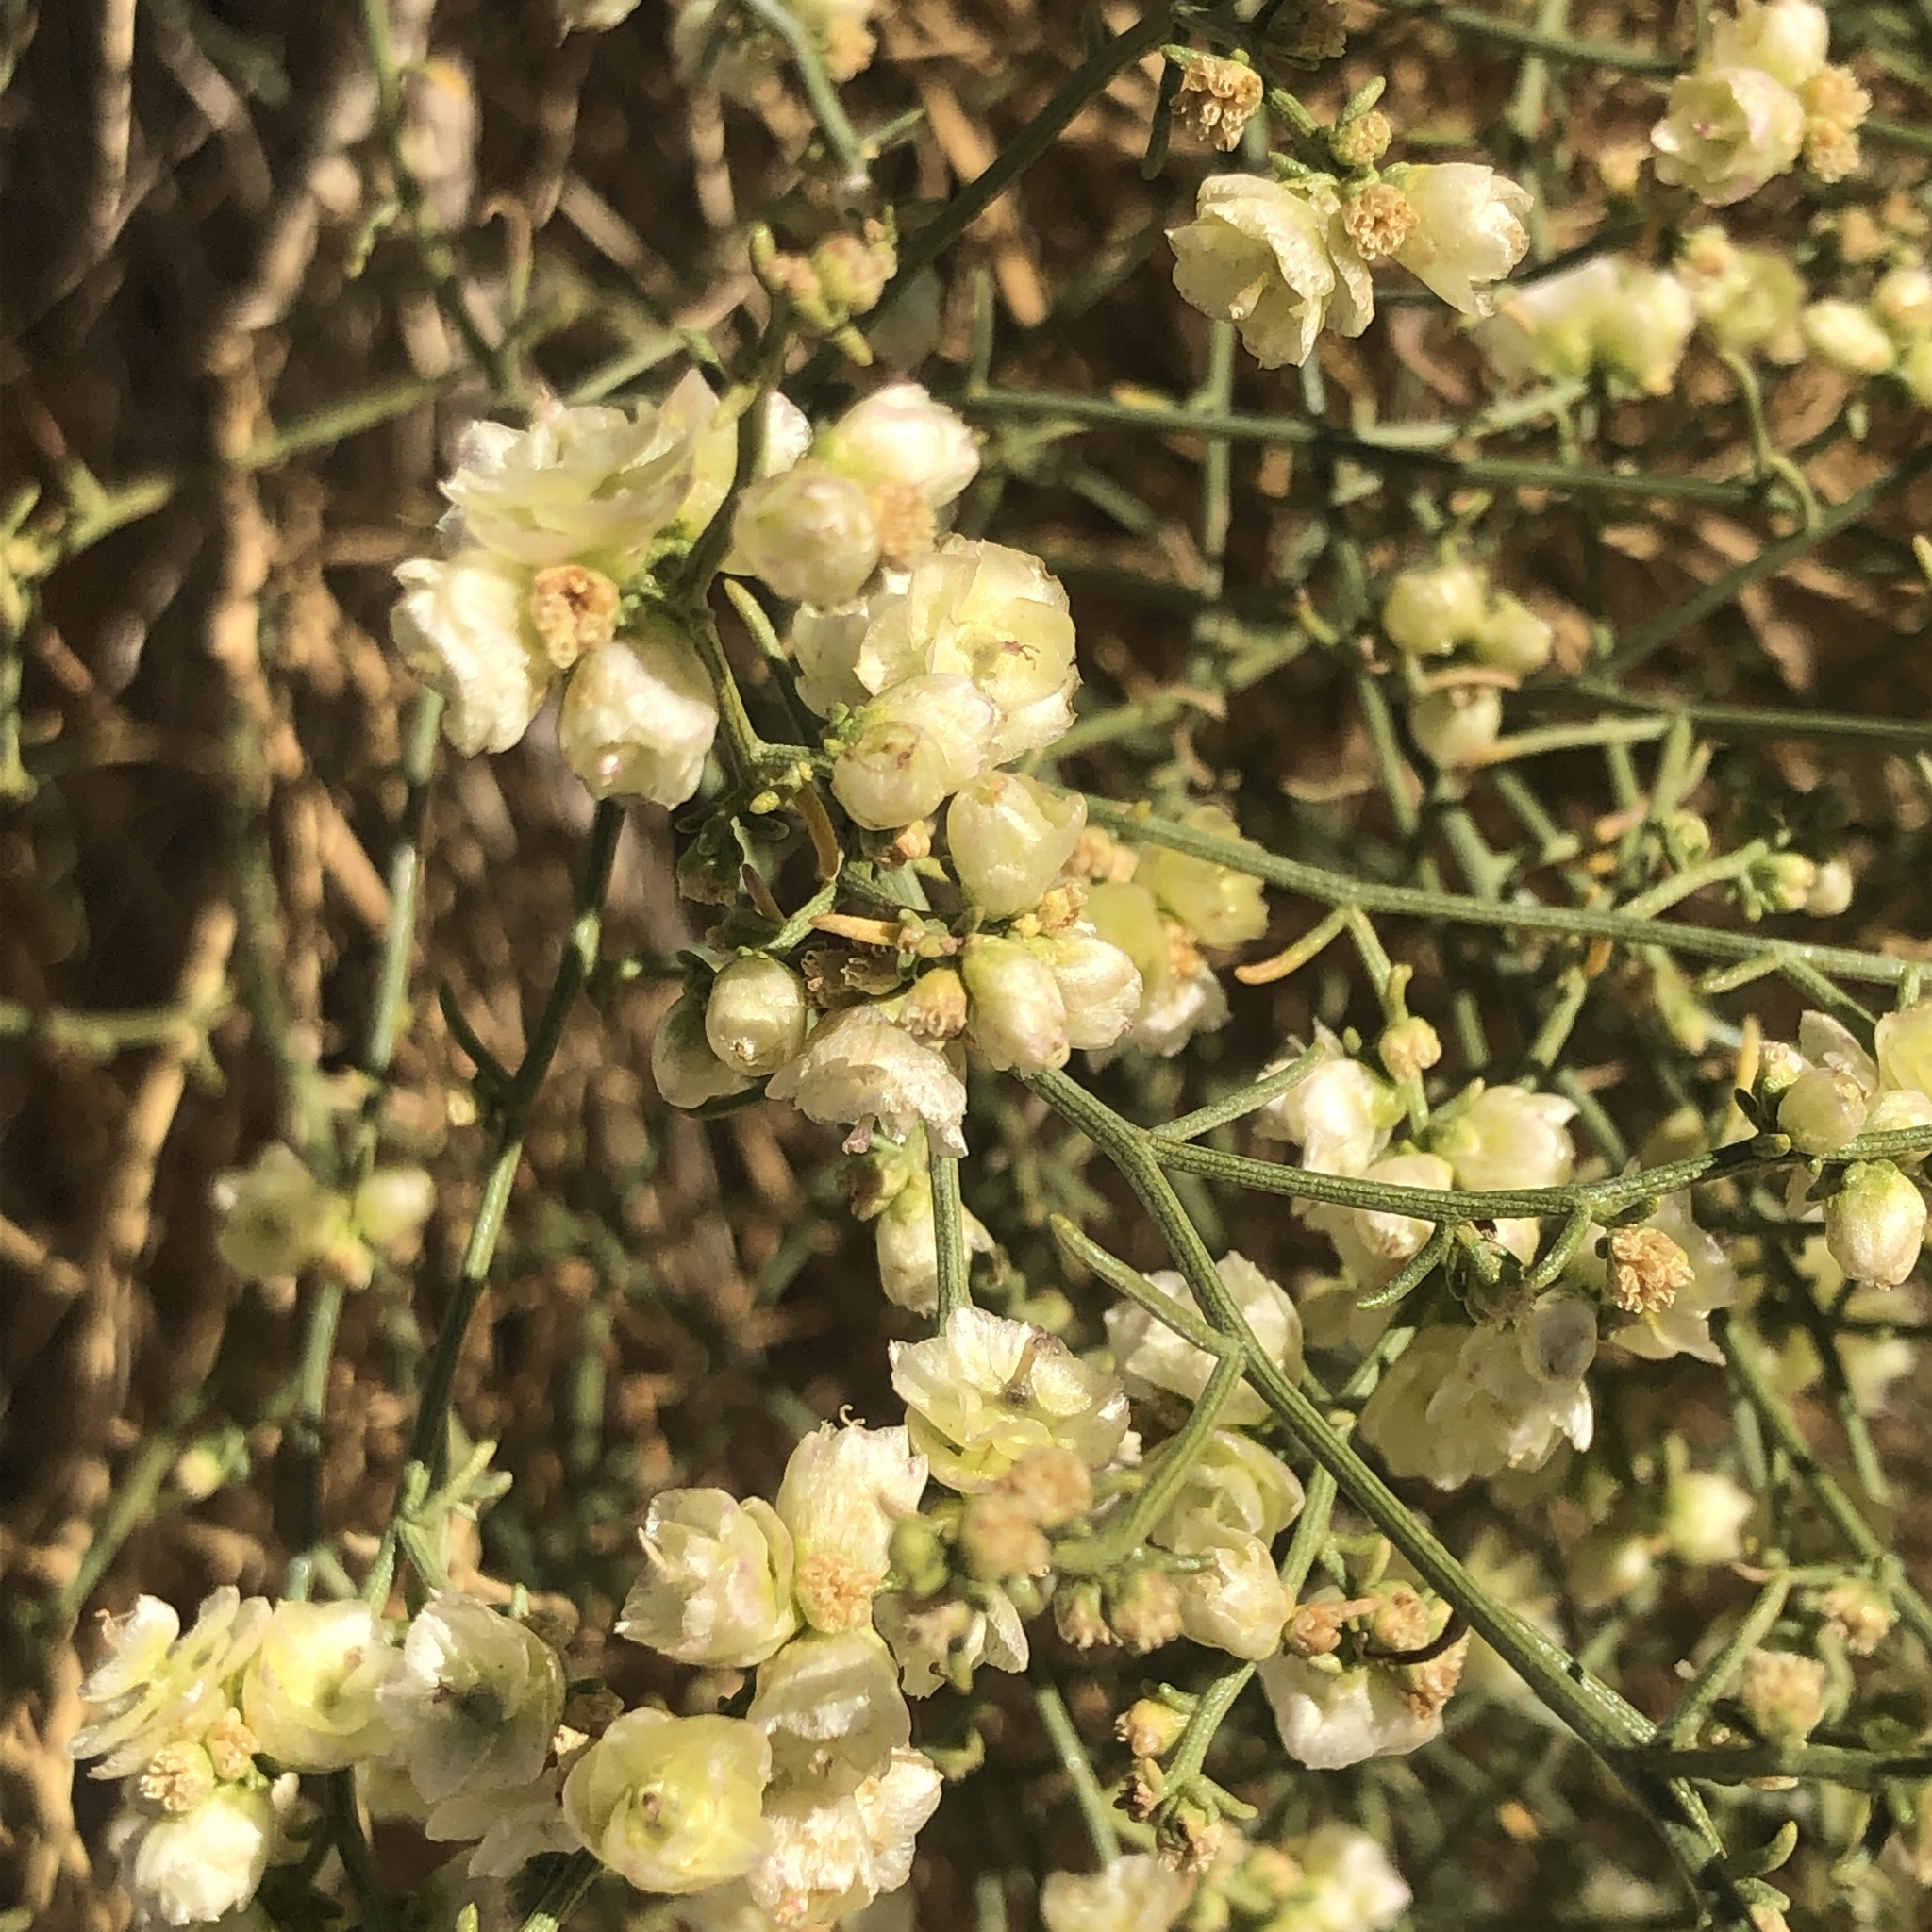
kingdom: Plantae
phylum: Tracheophyta
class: Magnoliopsida
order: Asterales
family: Asteraceae
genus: Ambrosia
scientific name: Ambrosia salsola
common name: Burrobrush
